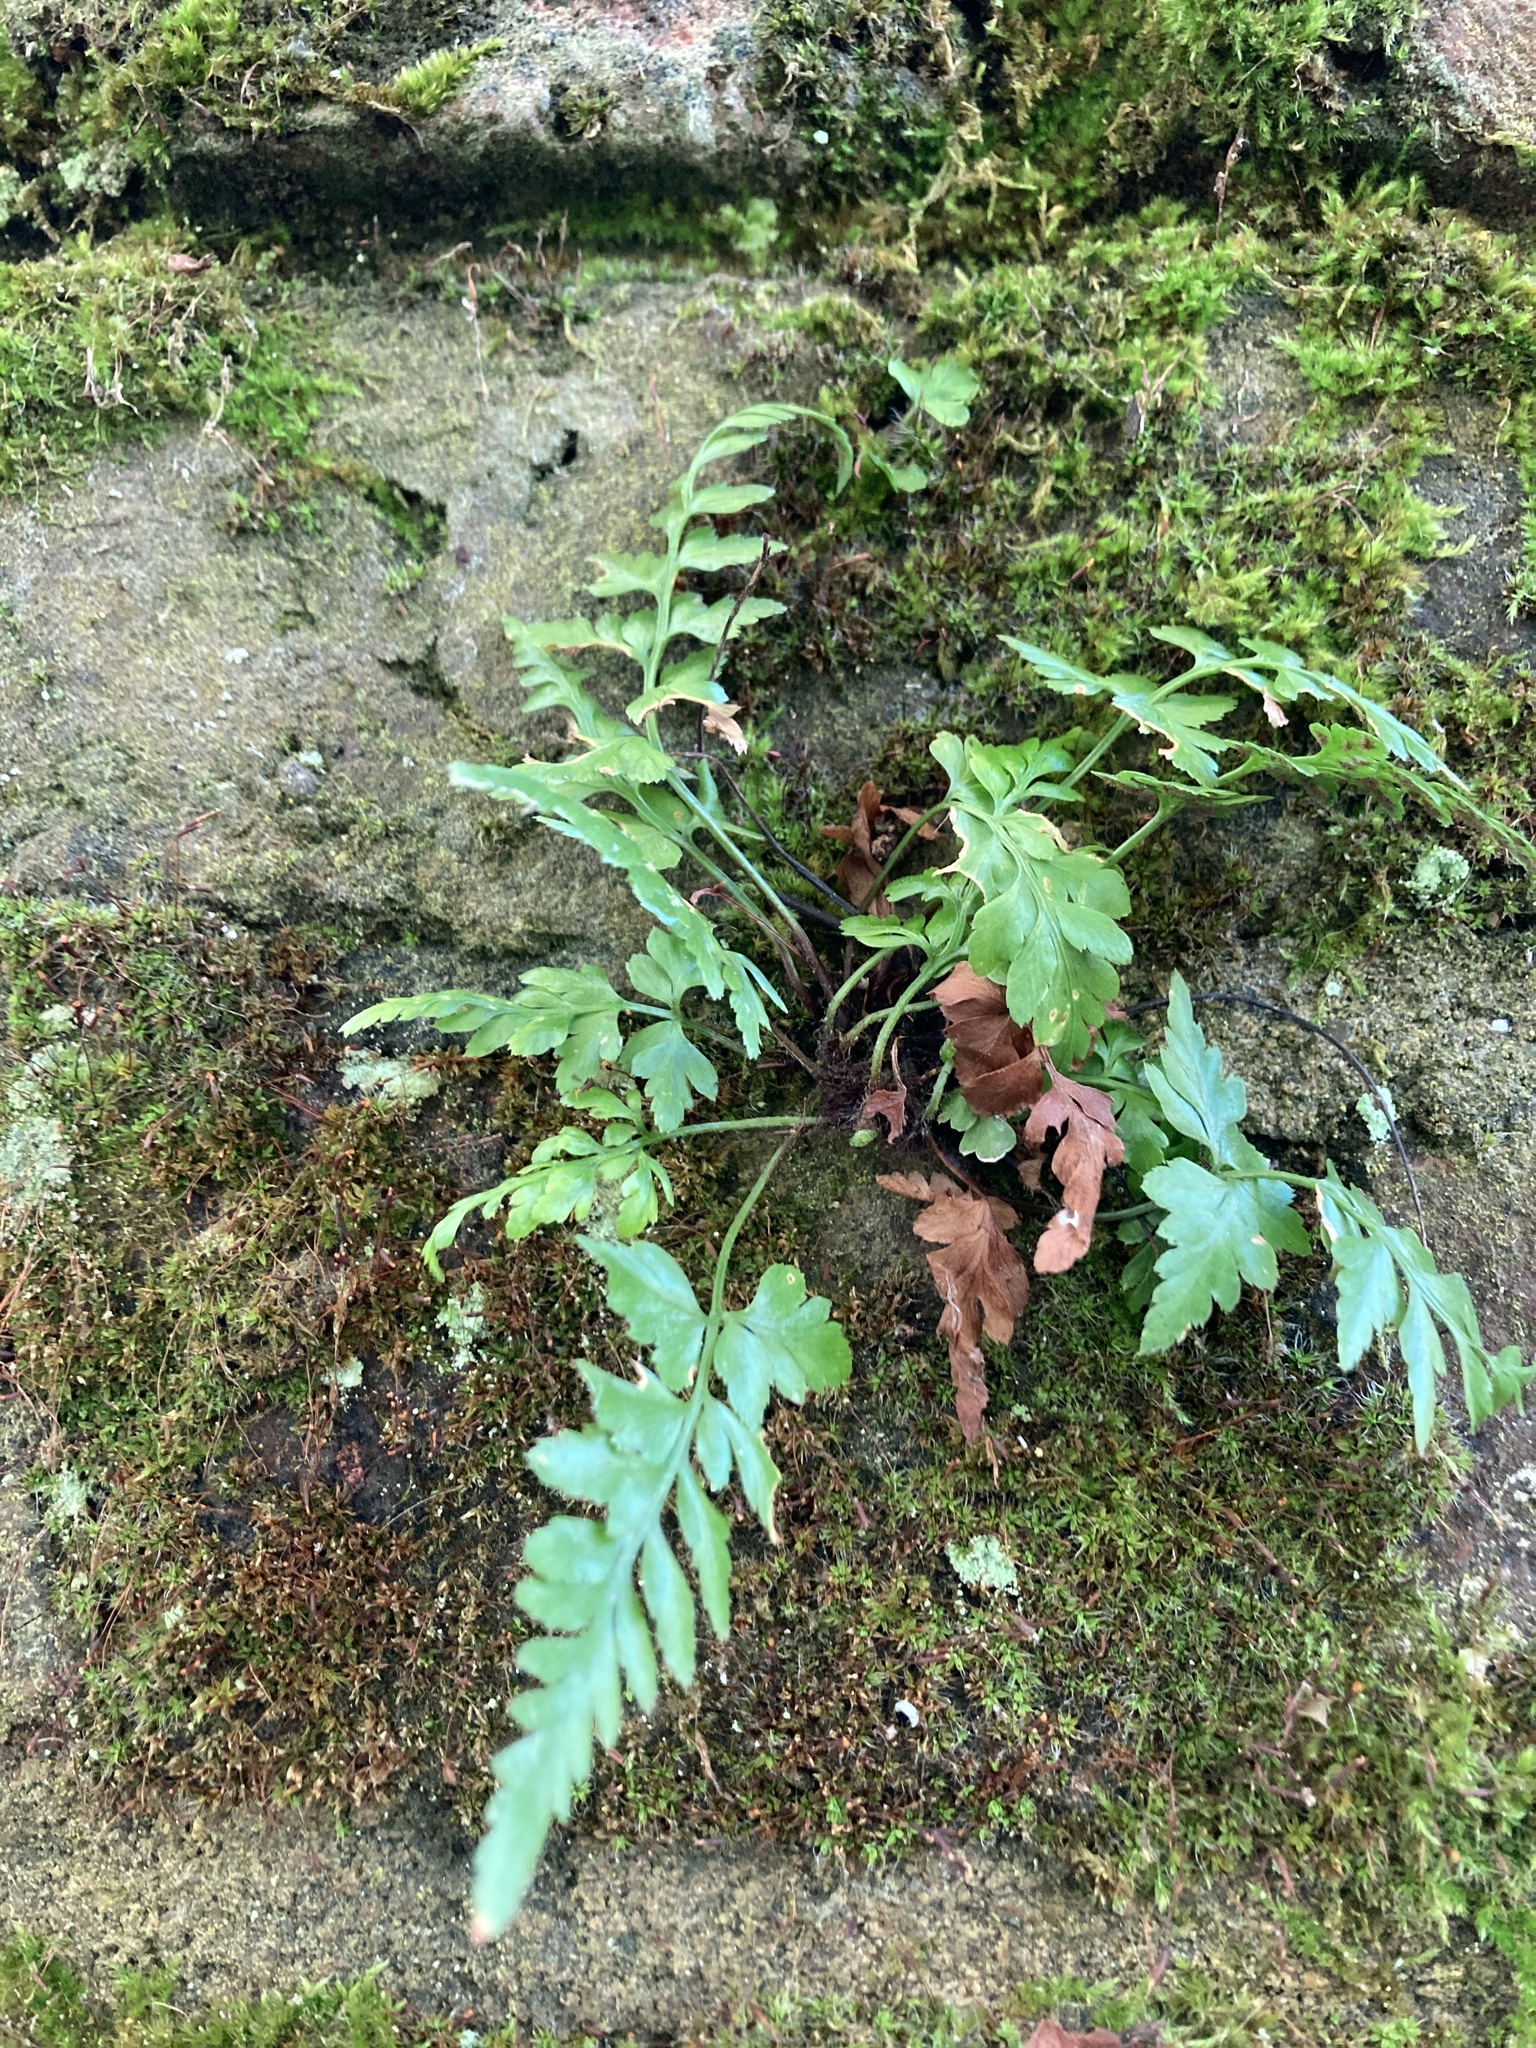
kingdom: Plantae
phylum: Tracheophyta
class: Polypodiopsida
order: Polypodiales
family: Aspleniaceae
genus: Asplenium
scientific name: Asplenium adiantum-nigrum
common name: Black spleenwort
